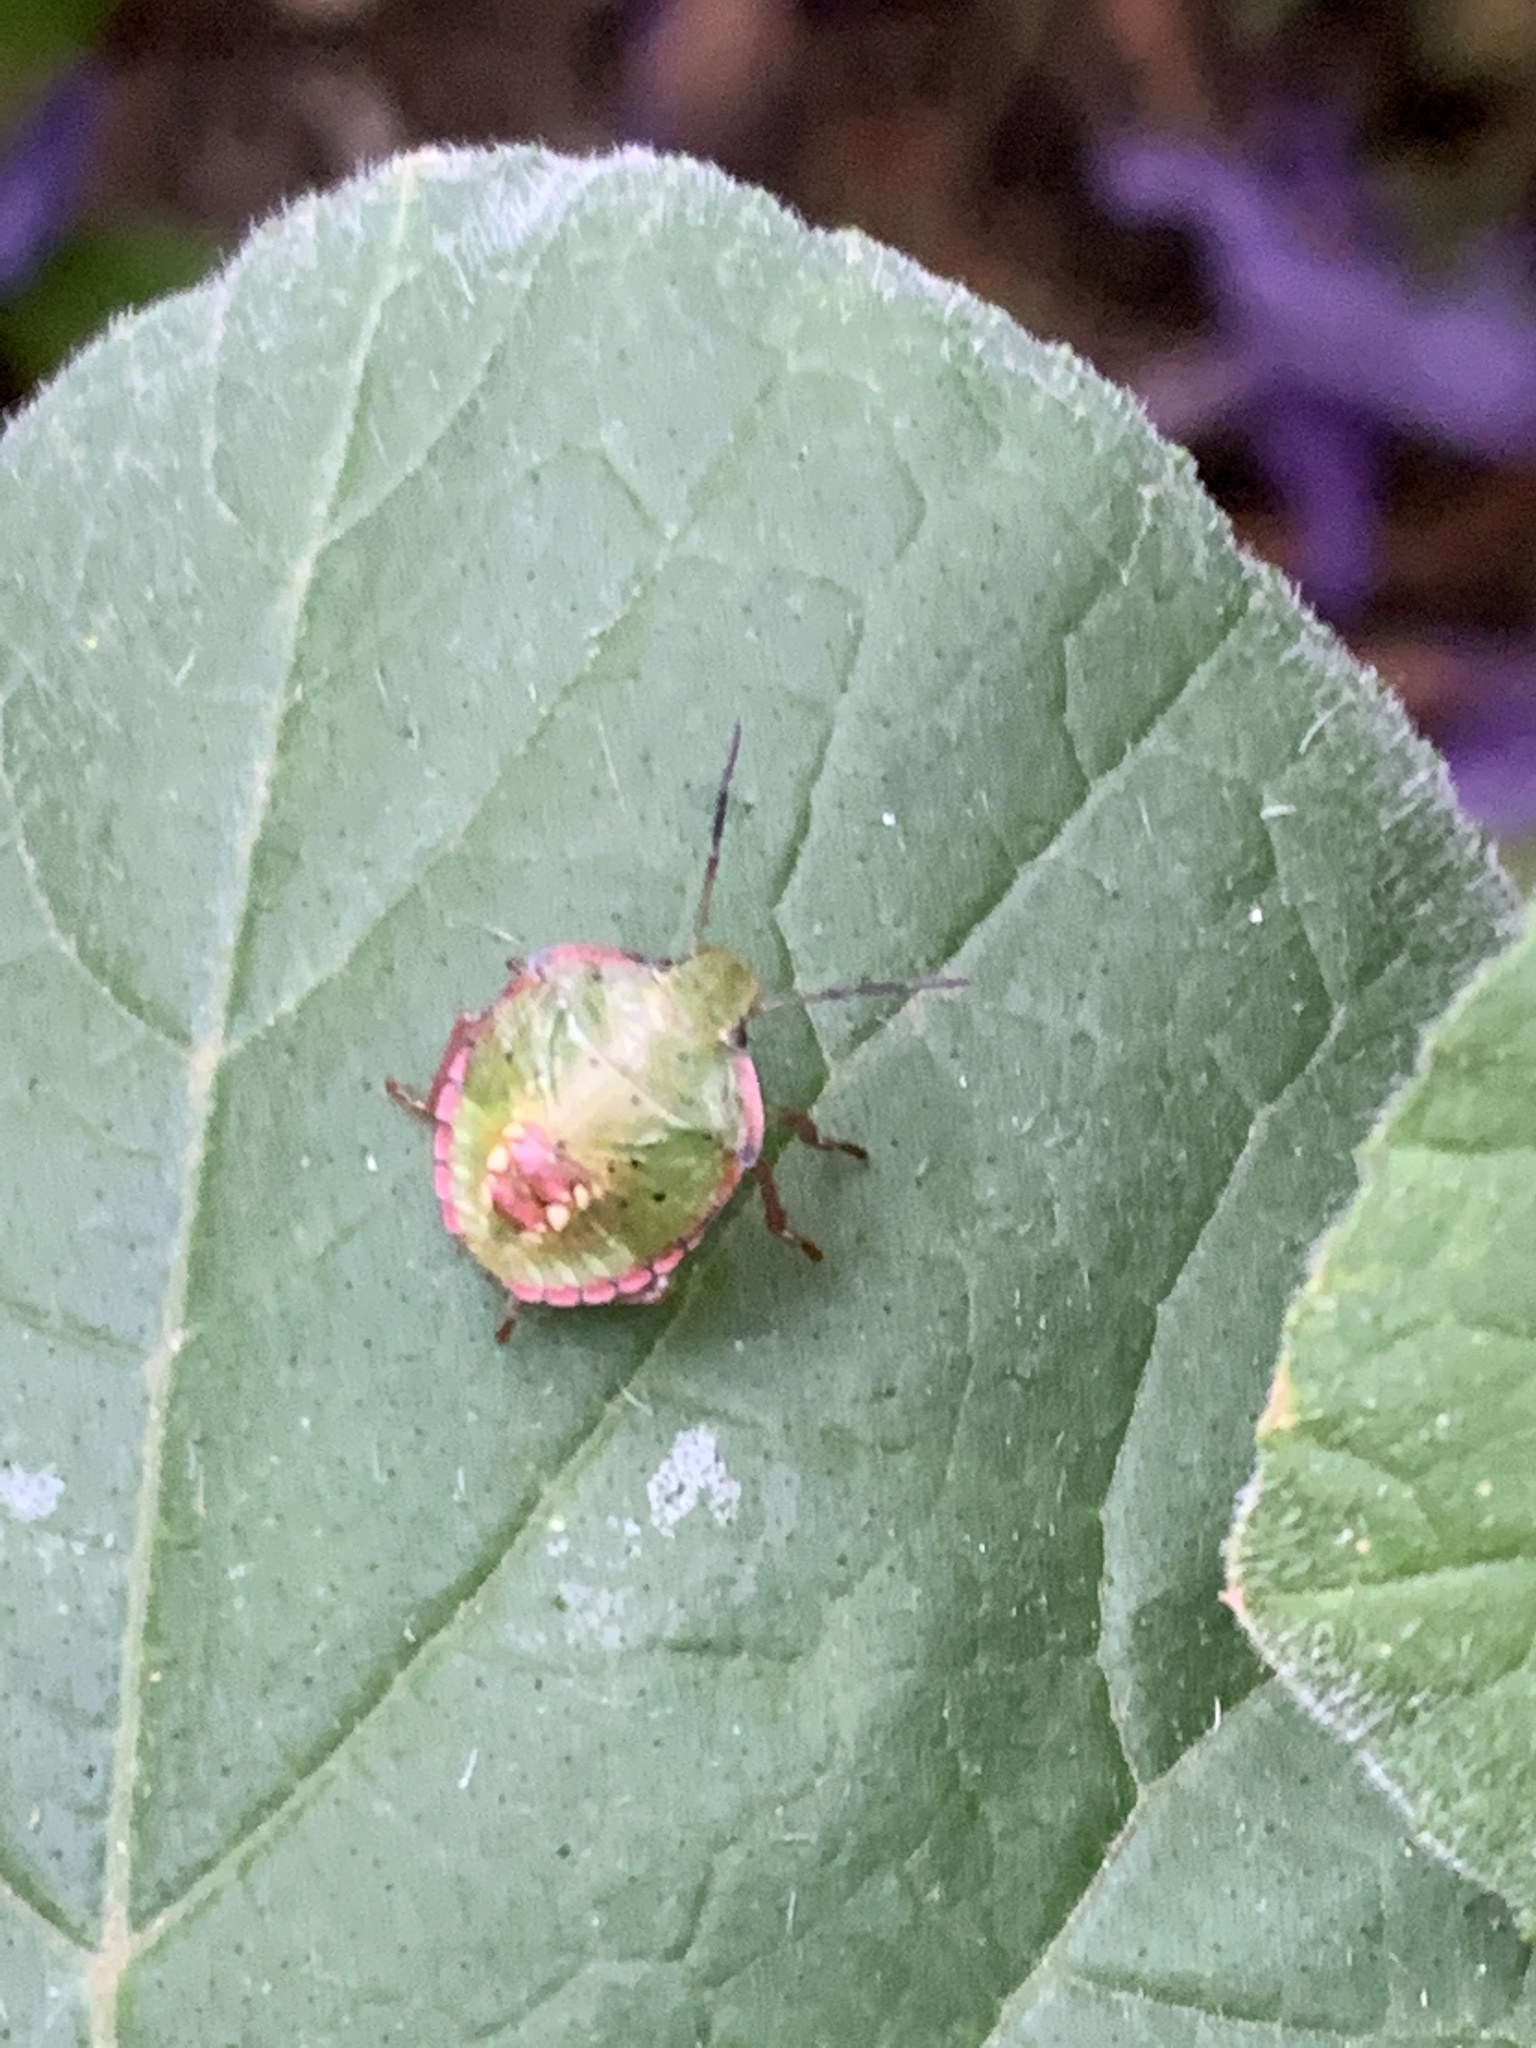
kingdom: Animalia
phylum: Arthropoda
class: Insecta
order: Hemiptera
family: Pentatomidae
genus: Nezara
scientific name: Nezara viridula
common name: Southern green stink bug
